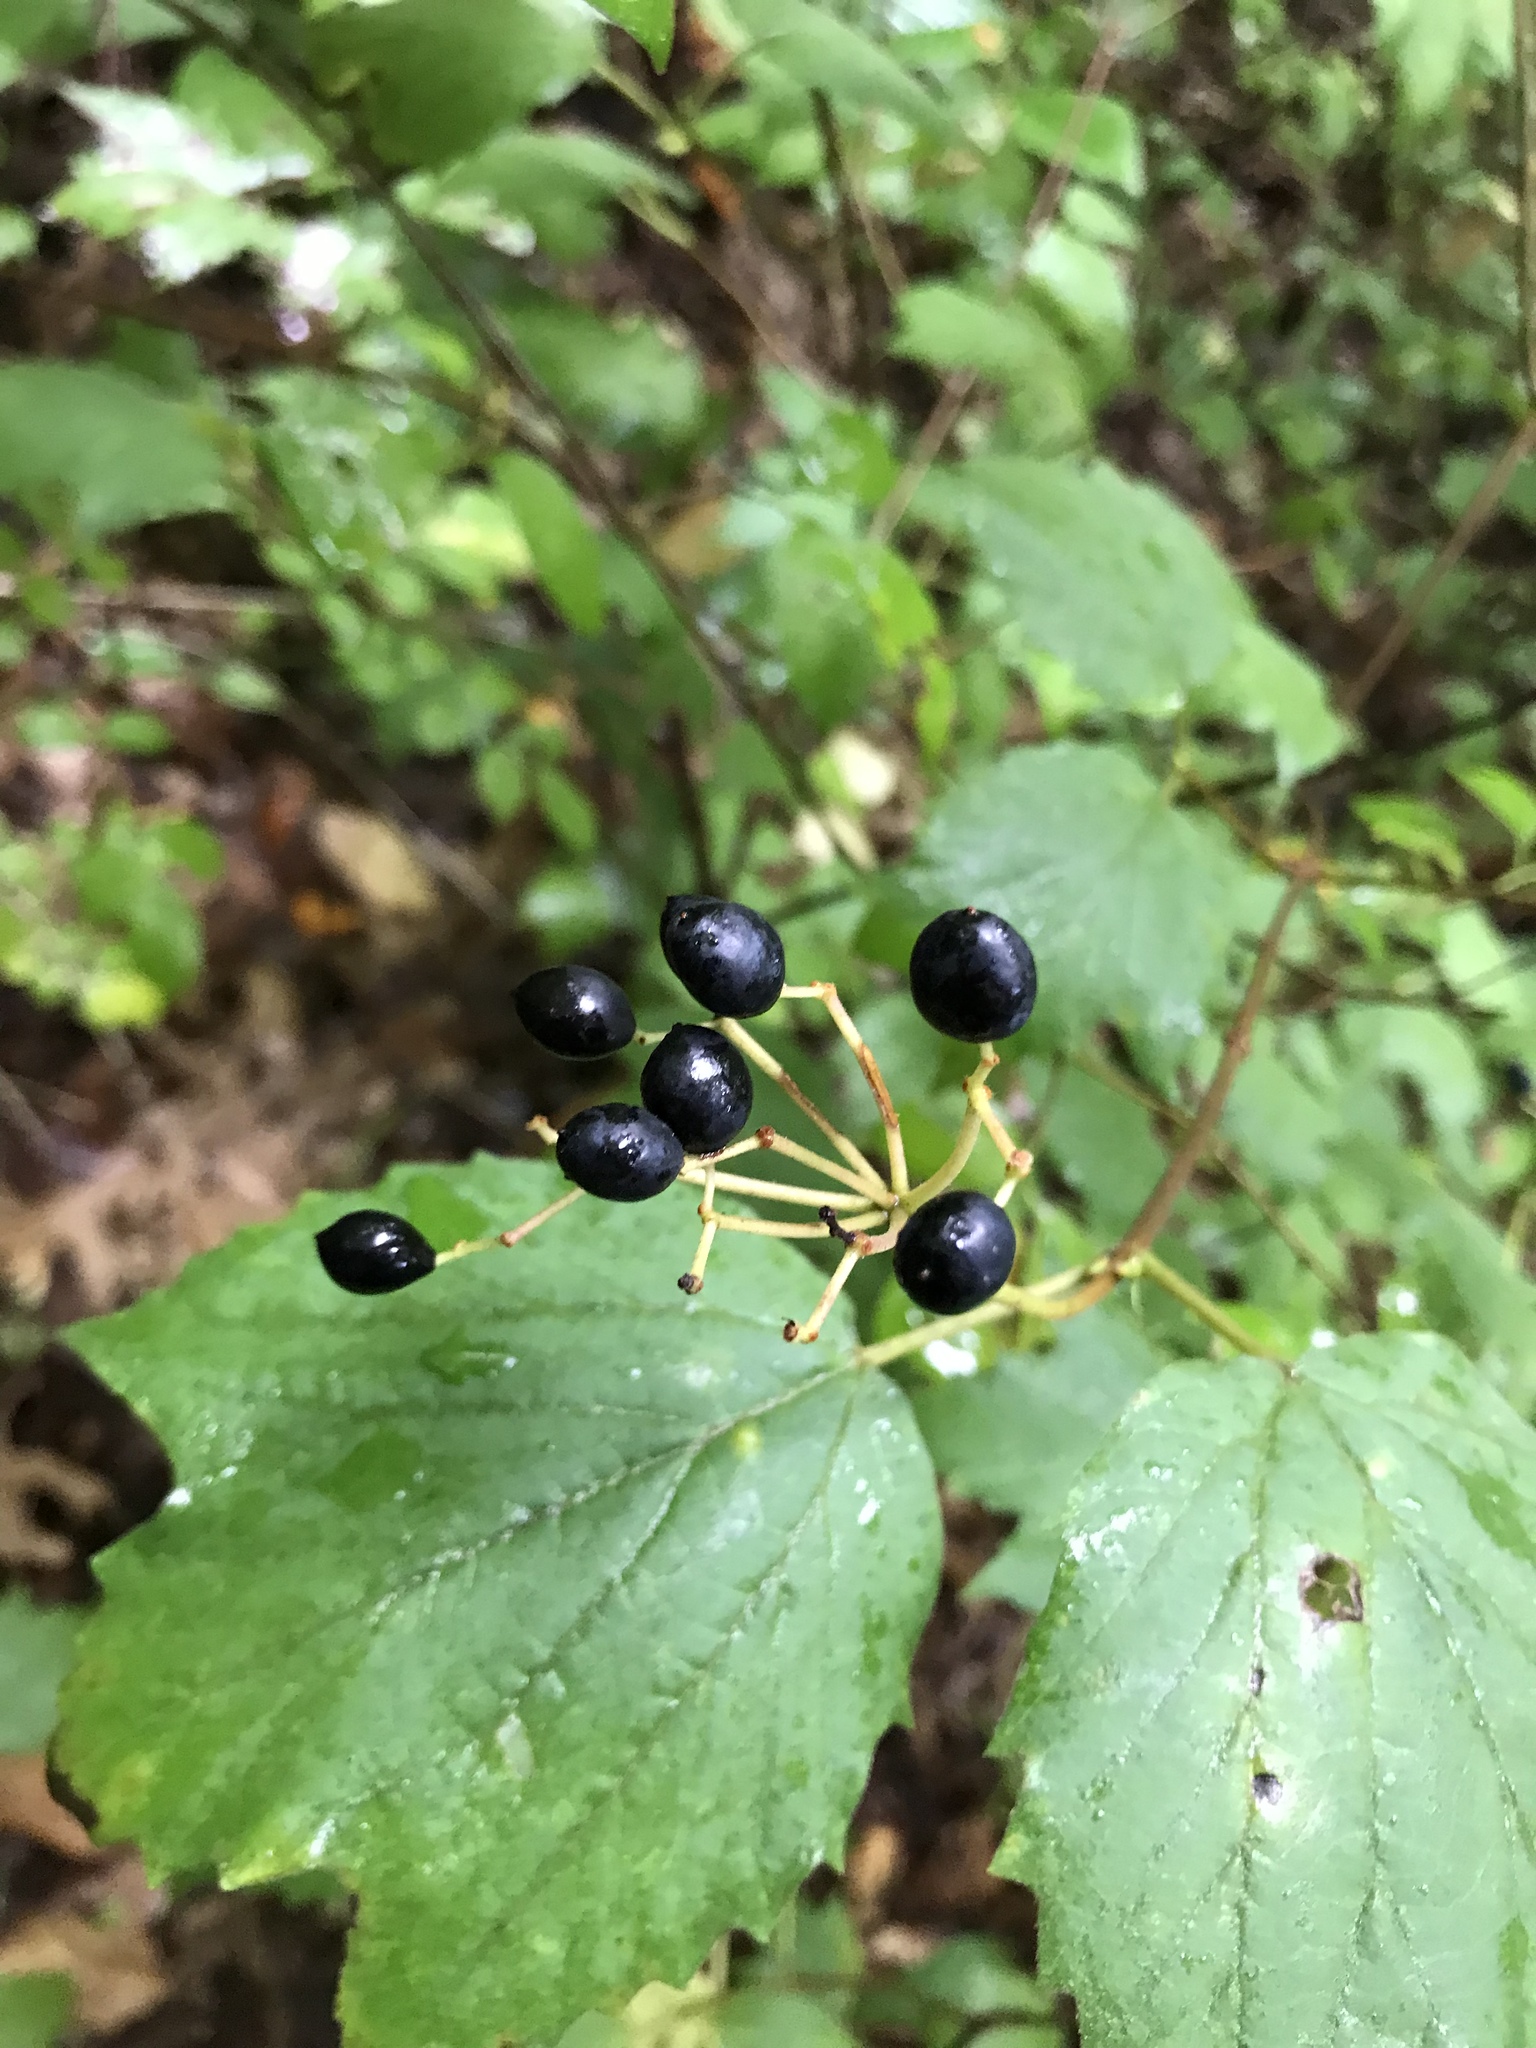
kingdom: Plantae
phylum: Tracheophyta
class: Magnoliopsida
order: Dipsacales
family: Viburnaceae
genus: Viburnum
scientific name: Viburnum acerifolium
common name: Dockmackie
